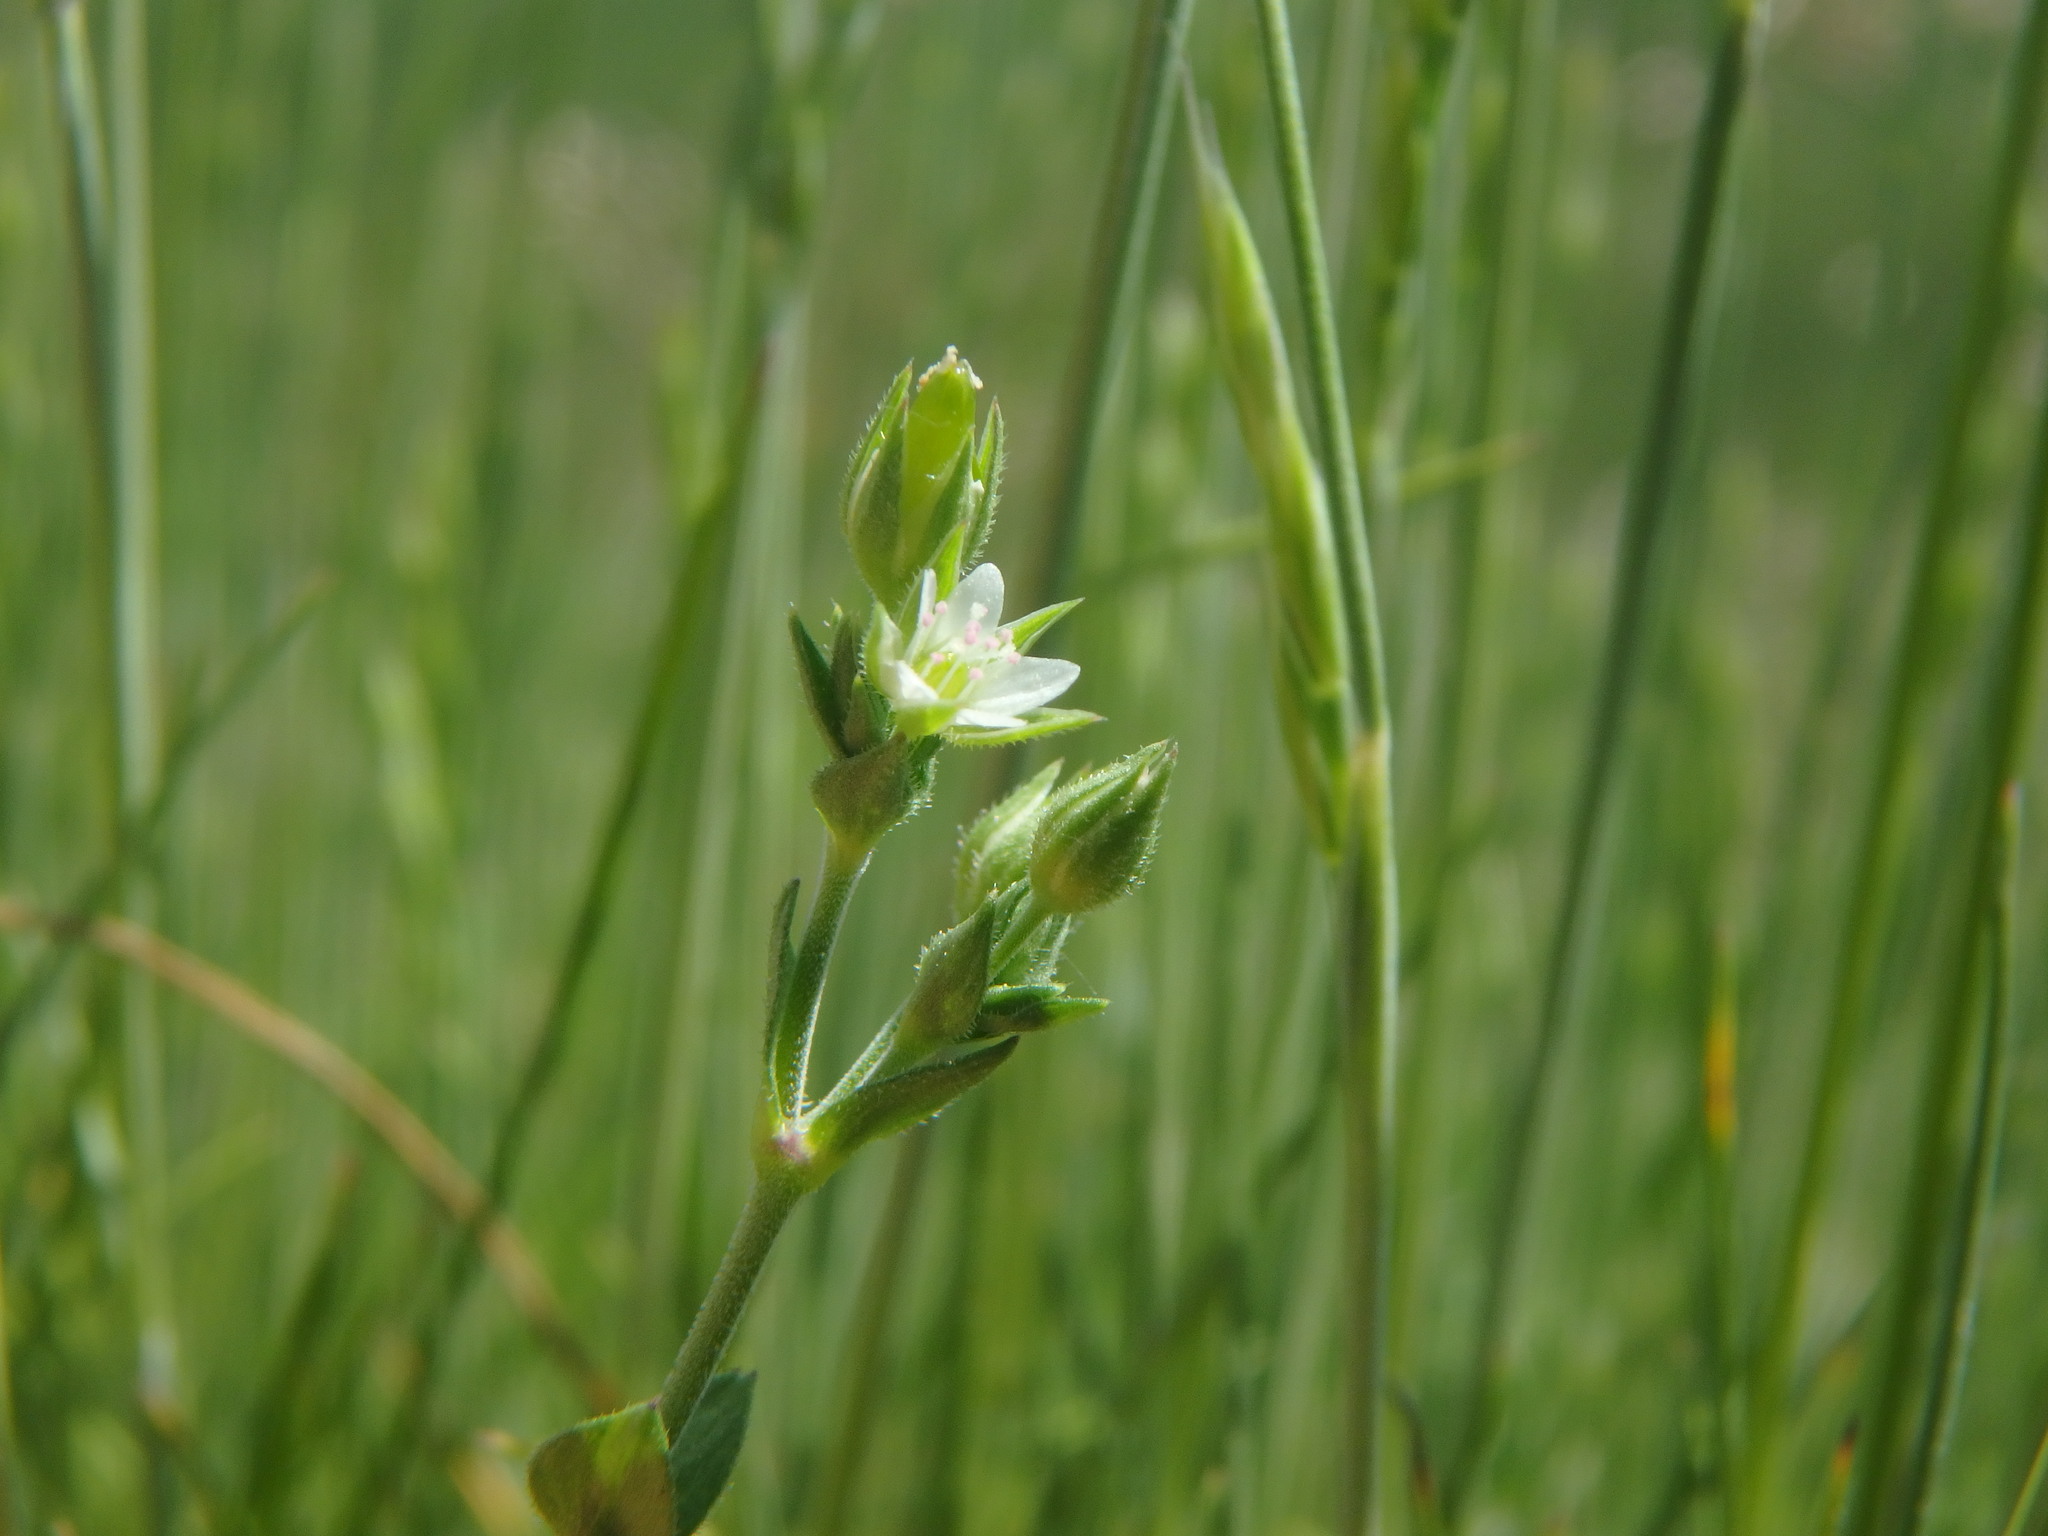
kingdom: Plantae
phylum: Tracheophyta
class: Magnoliopsida
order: Caryophyllales
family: Caryophyllaceae
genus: Arenaria
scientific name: Arenaria serpyllifolia
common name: Thyme-leaved sandwort
